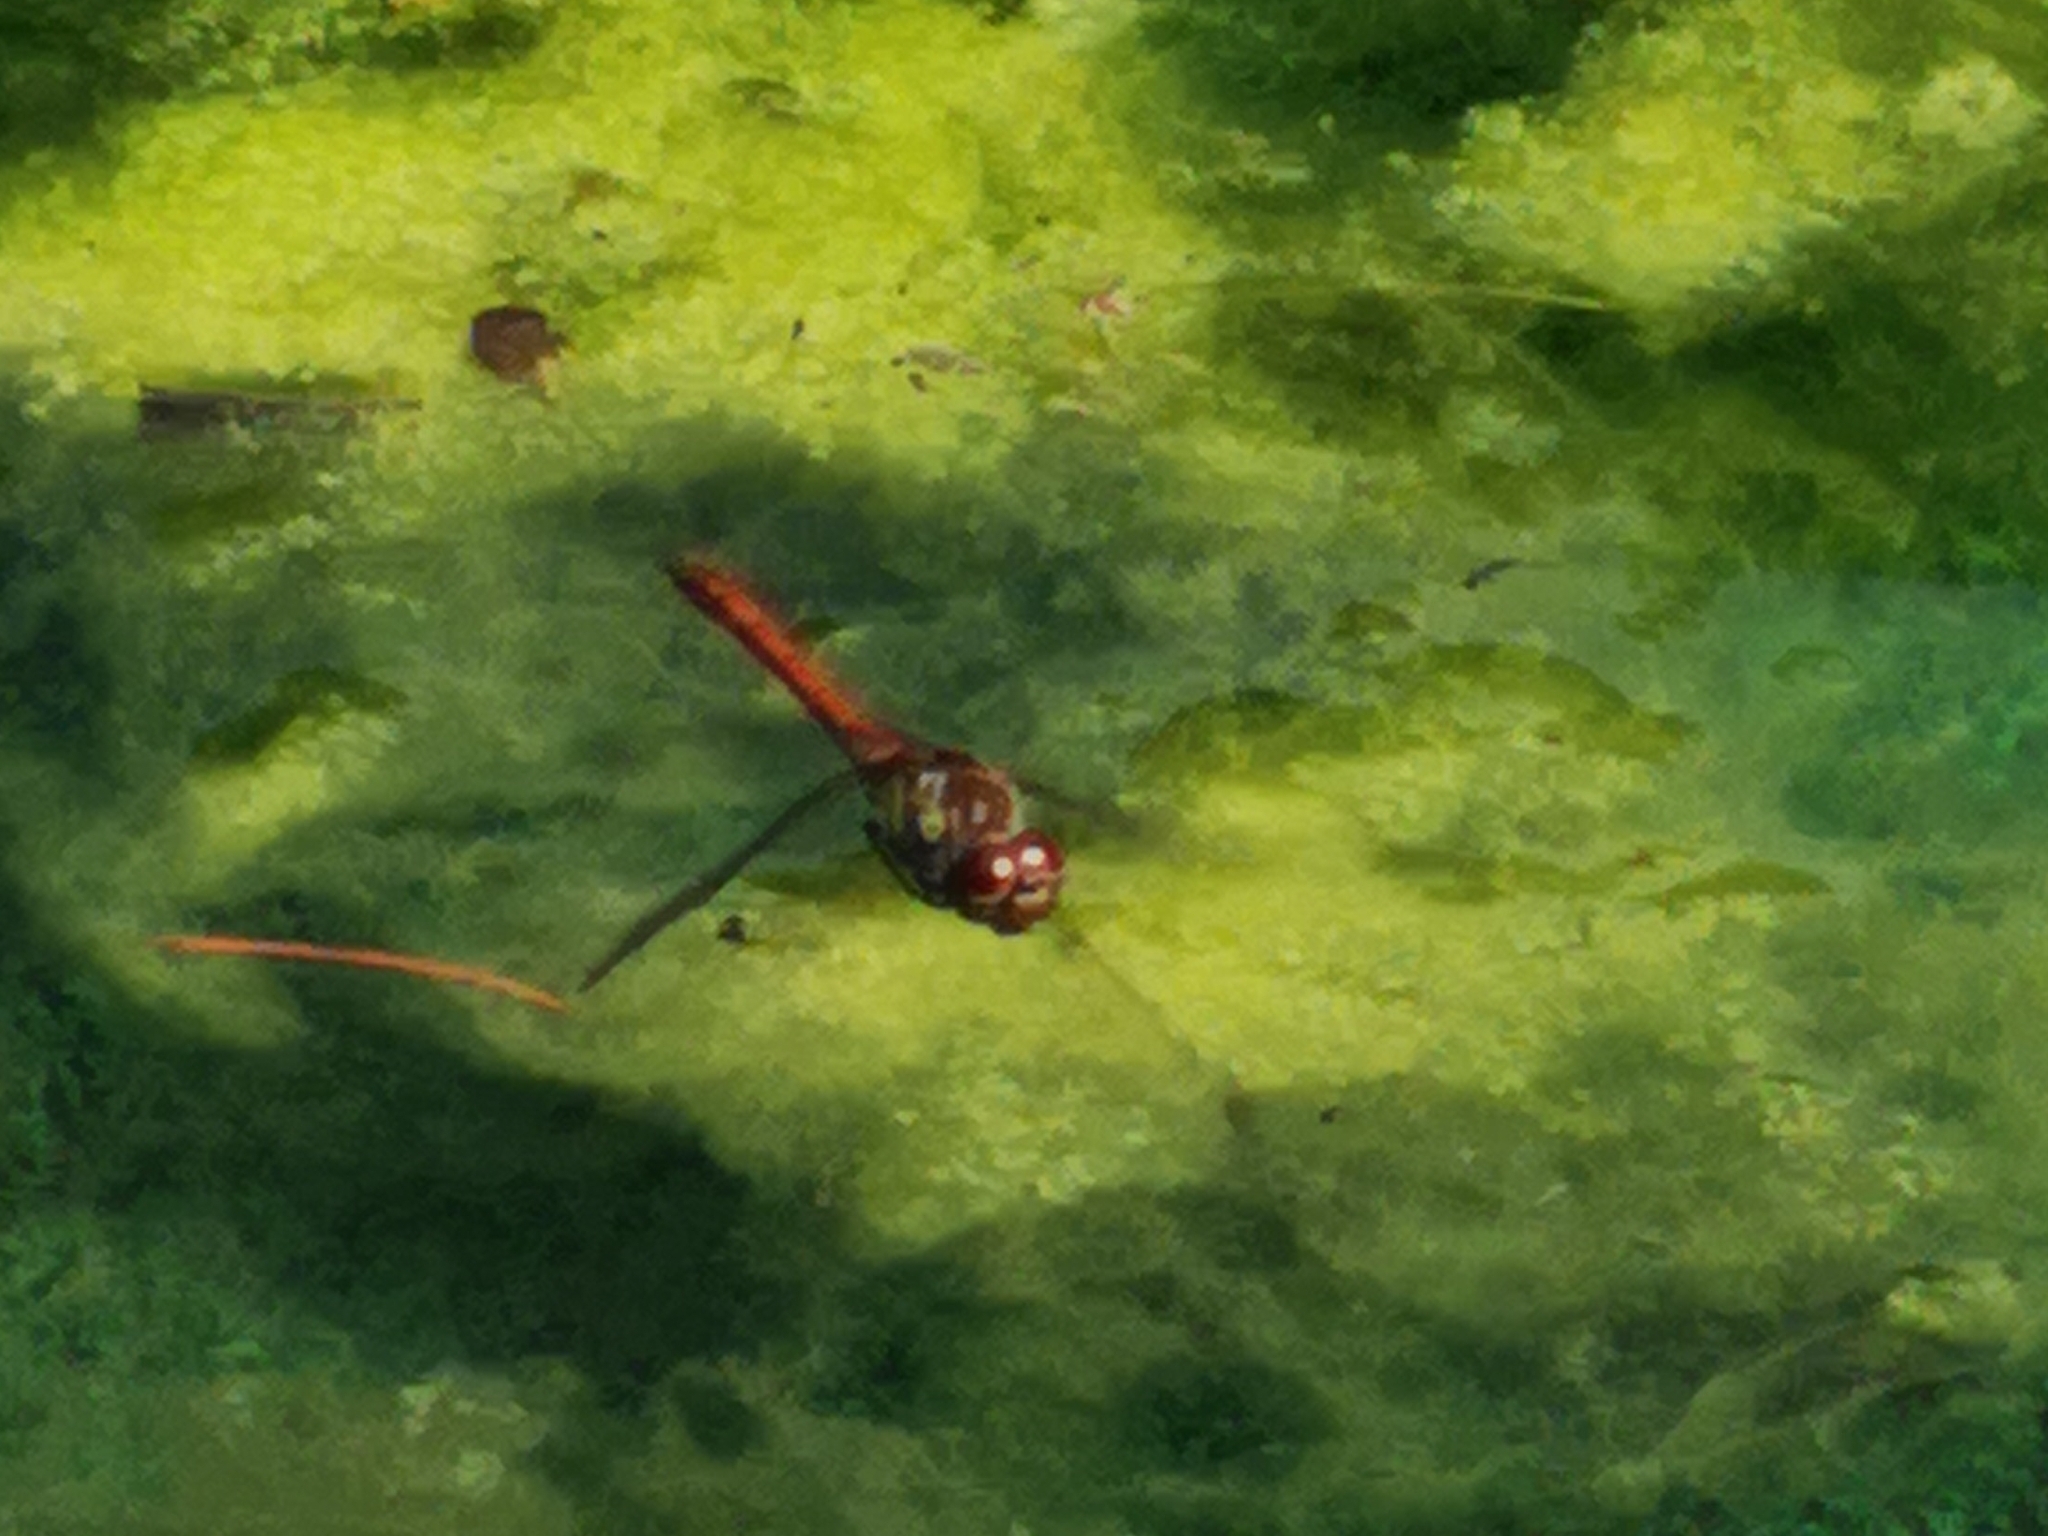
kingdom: Animalia
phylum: Arthropoda
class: Insecta
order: Odonata
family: Libellulidae
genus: Sympetrum
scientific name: Sympetrum striolatum
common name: Common darter
